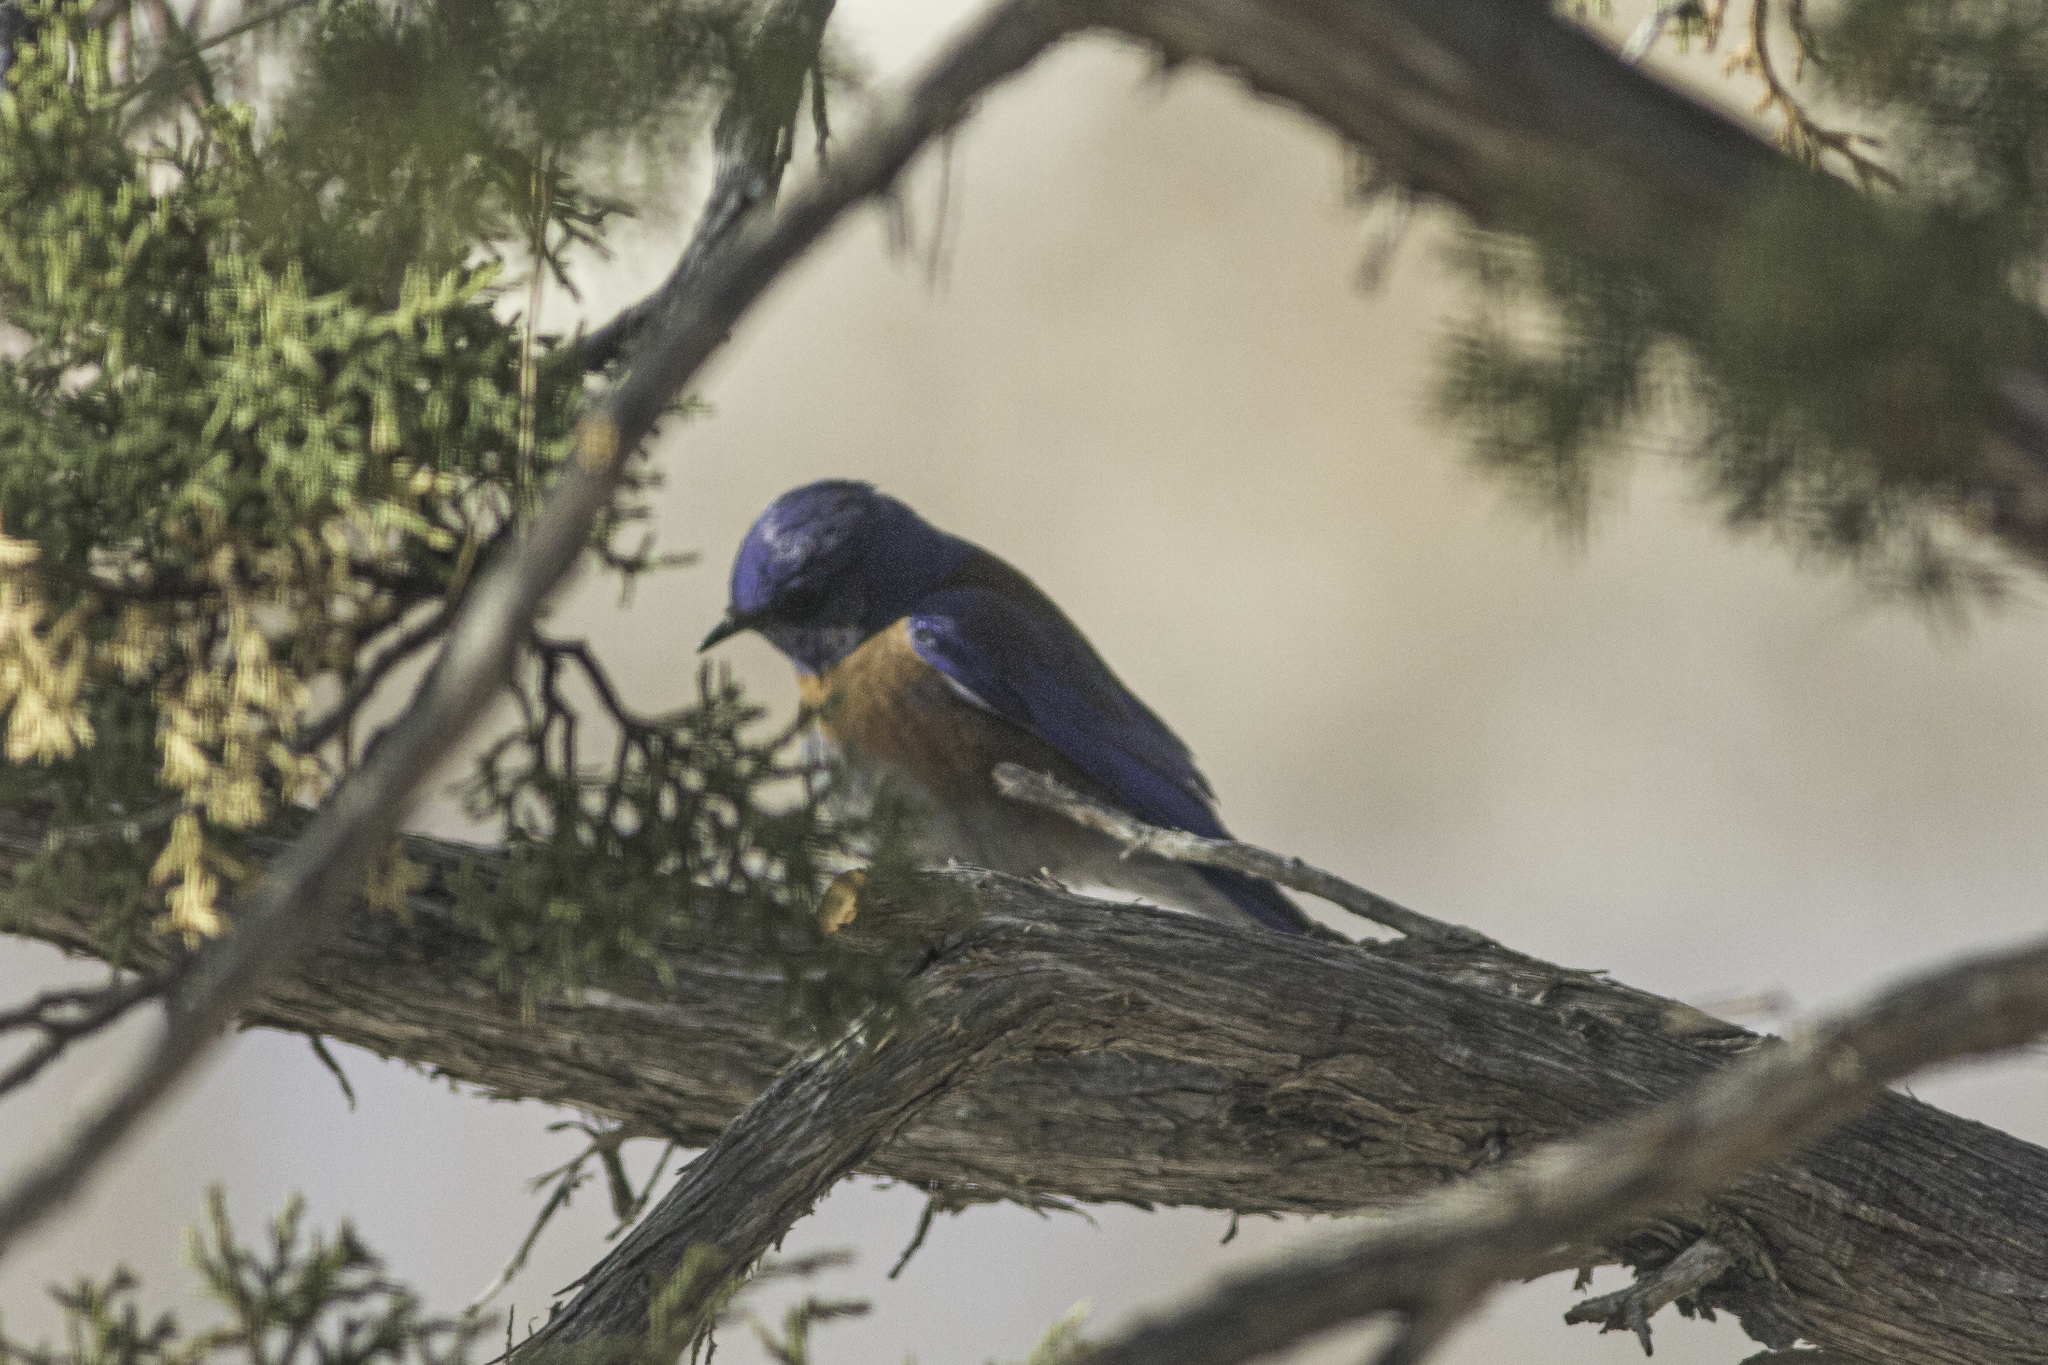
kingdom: Animalia
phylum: Chordata
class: Aves
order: Passeriformes
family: Turdidae
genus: Sialia
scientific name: Sialia mexicana
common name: Western bluebird
